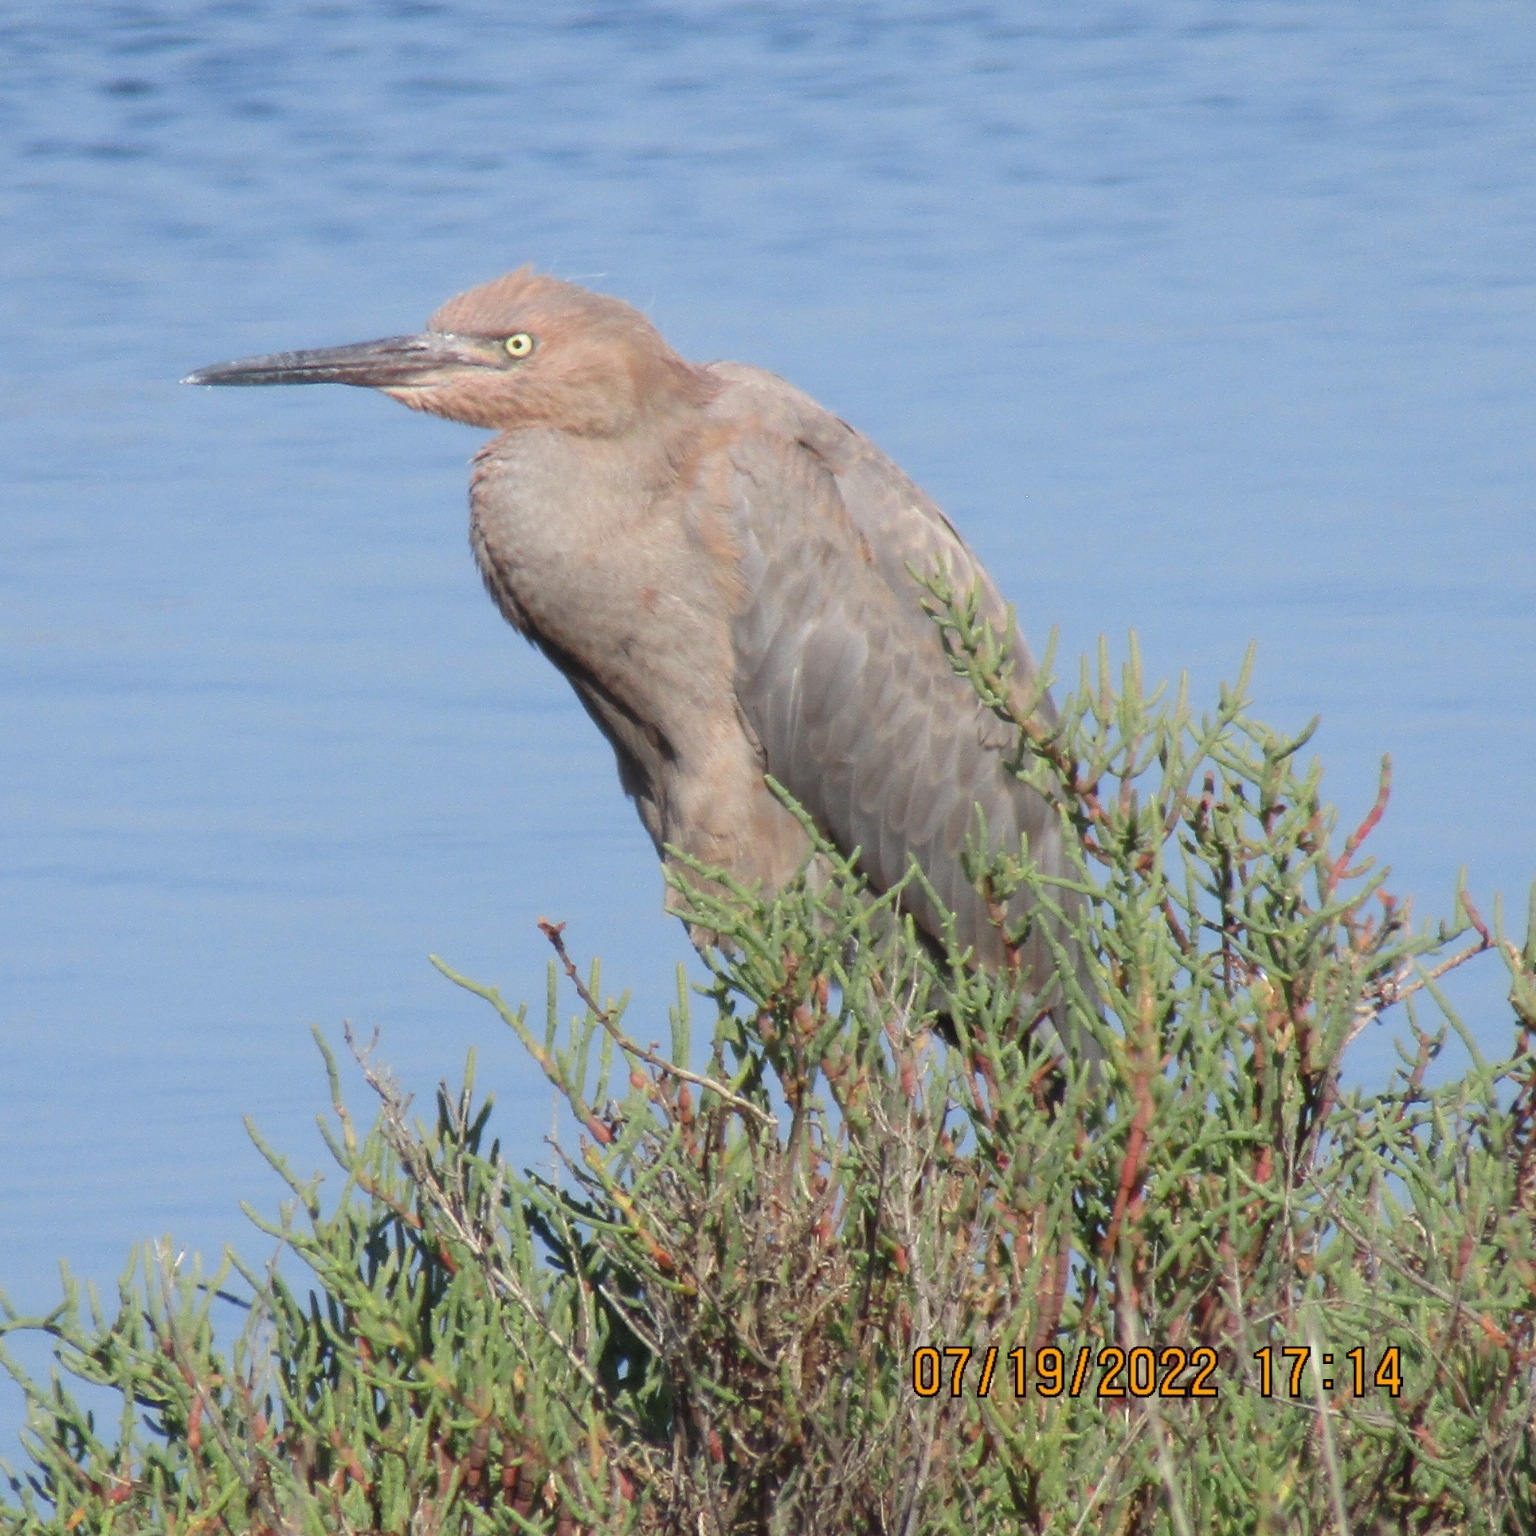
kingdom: Animalia
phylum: Chordata
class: Aves
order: Pelecaniformes
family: Ardeidae
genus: Egretta
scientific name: Egretta rufescens
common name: Reddish egret
